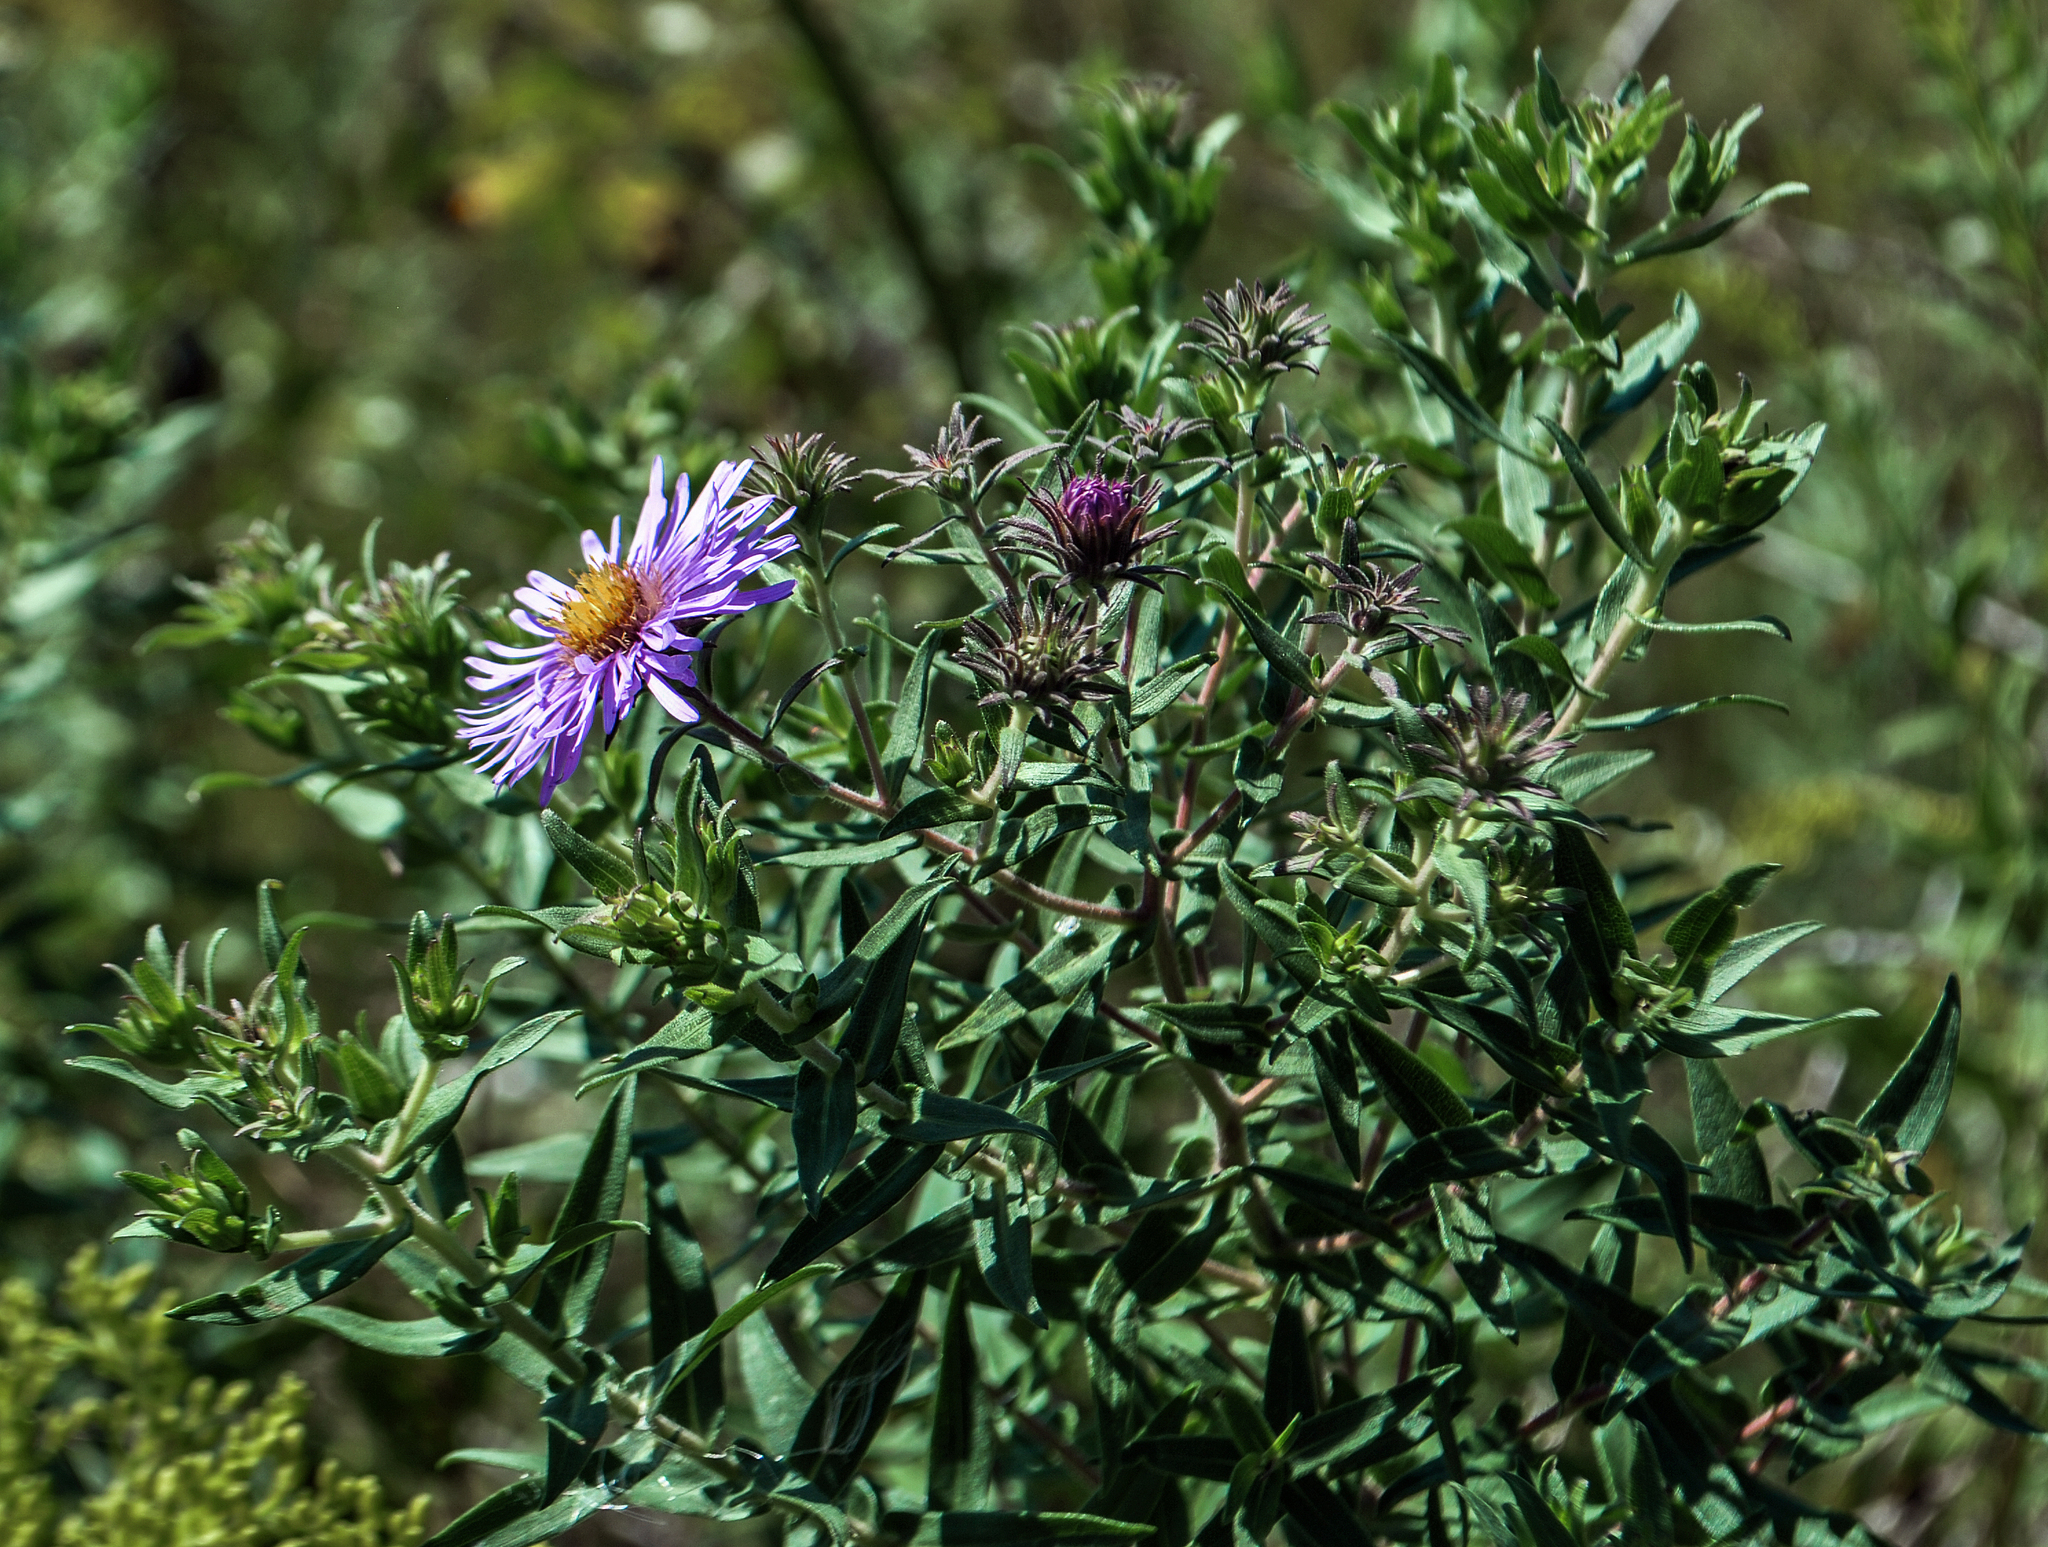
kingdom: Plantae
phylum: Tracheophyta
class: Magnoliopsida
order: Asterales
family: Asteraceae
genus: Symphyotrichum
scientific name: Symphyotrichum novae-angliae
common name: Michaelmas daisy
